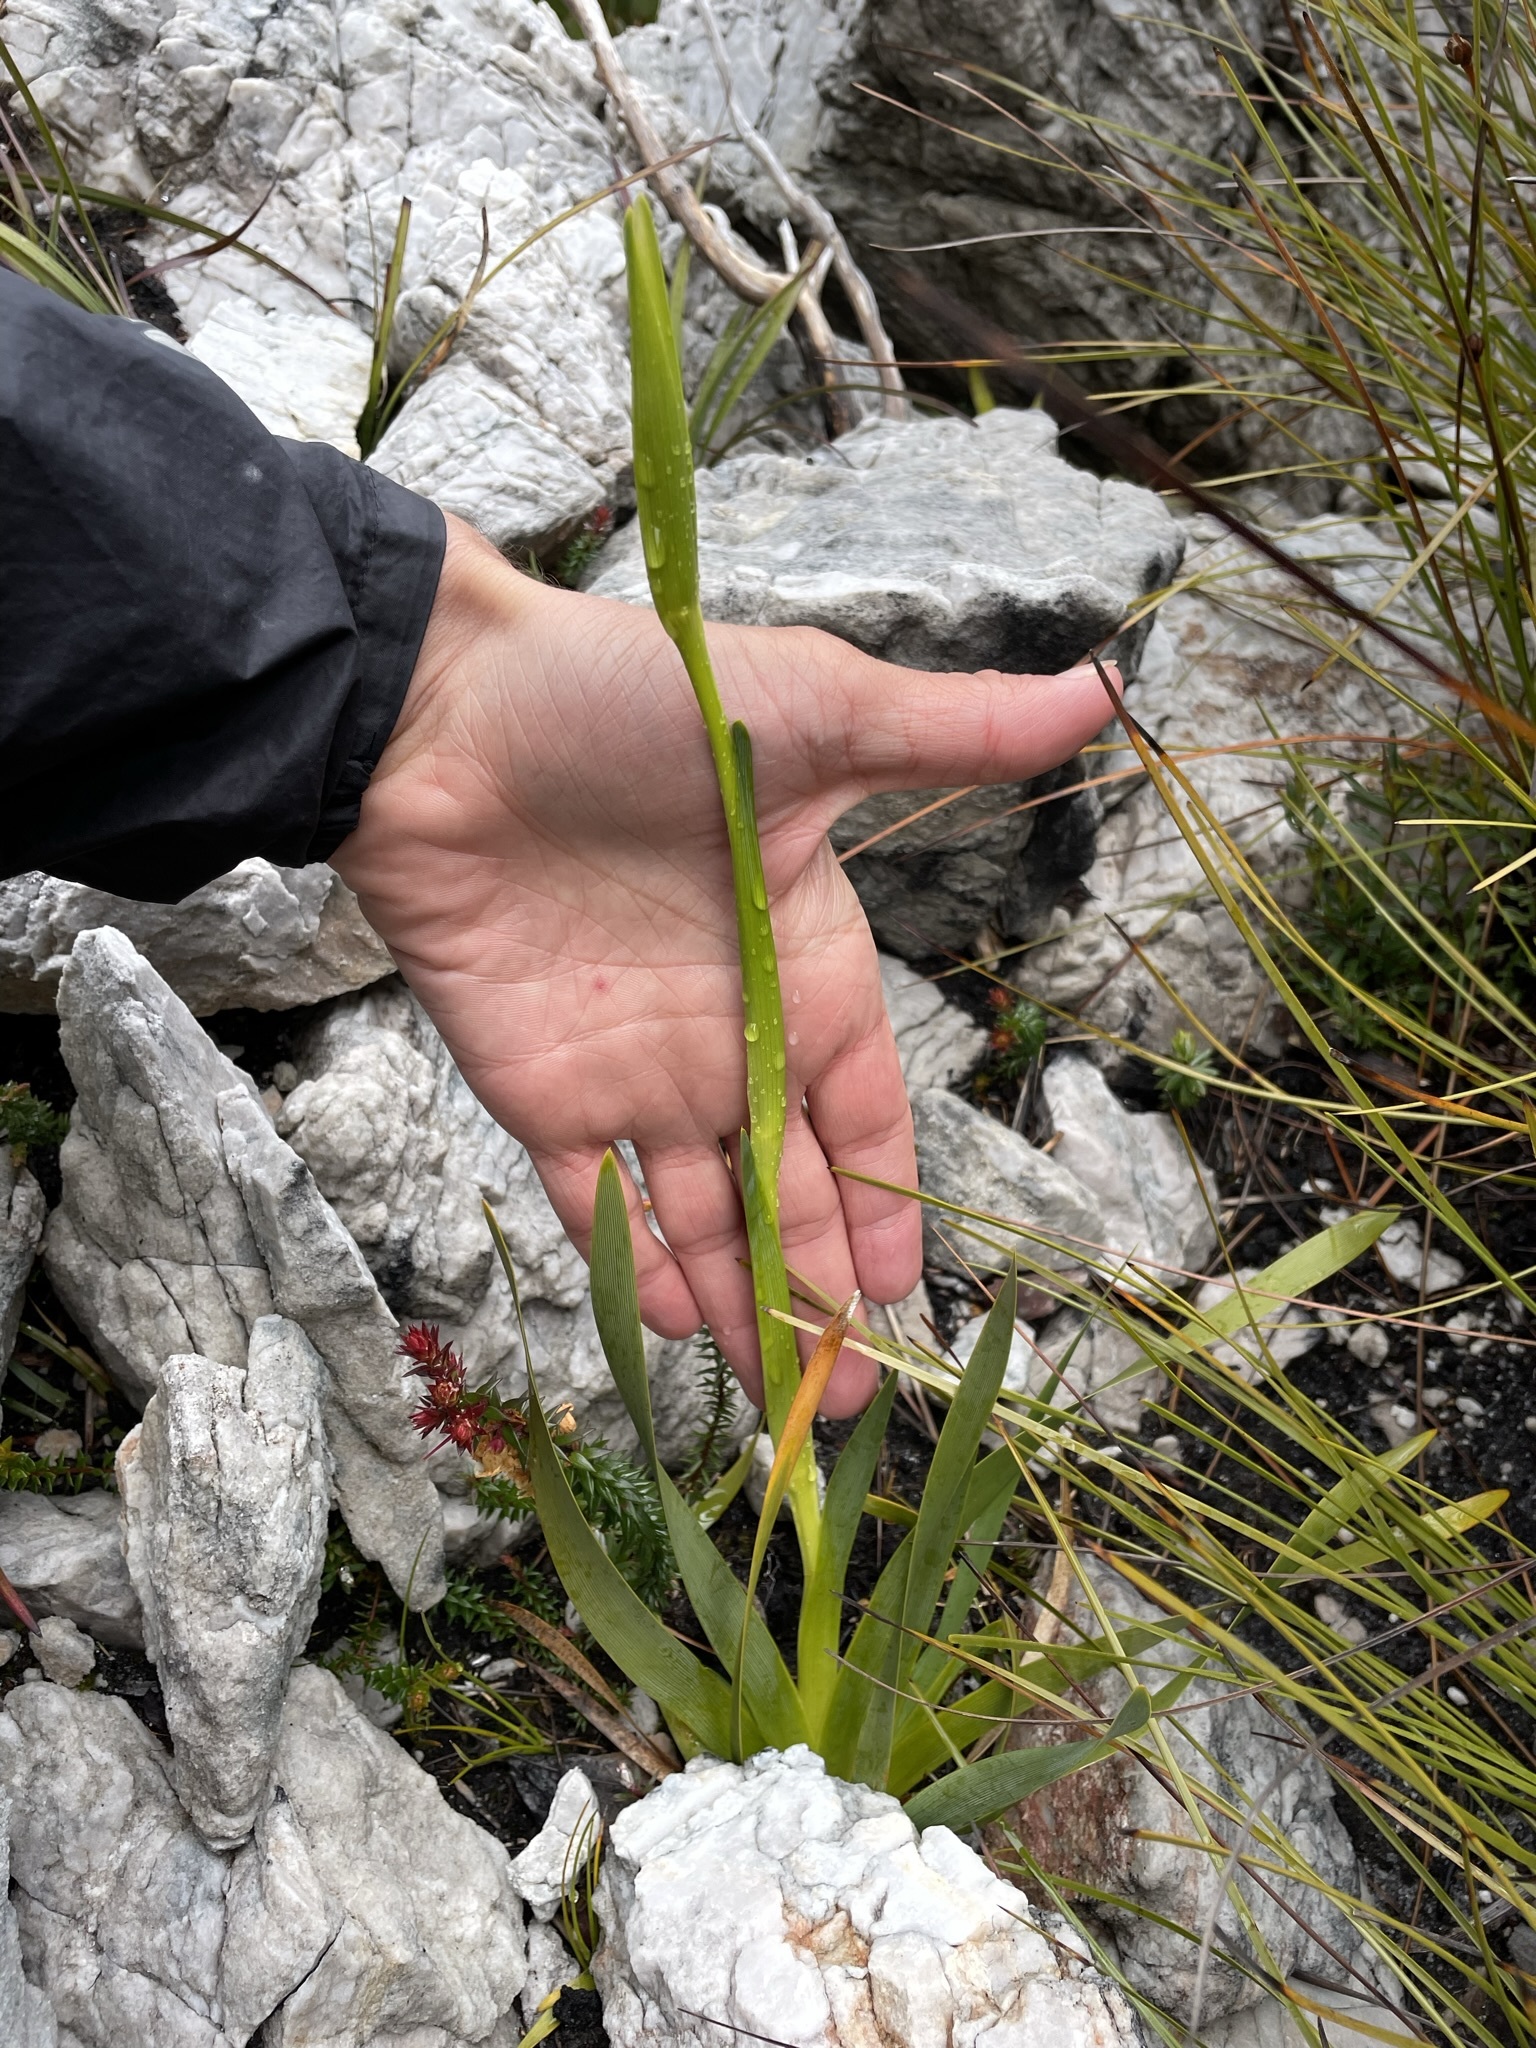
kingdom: Plantae
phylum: Tracheophyta
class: Liliopsida
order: Asparagales
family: Iridaceae
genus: Diplarrena
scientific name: Diplarrena latifolia
